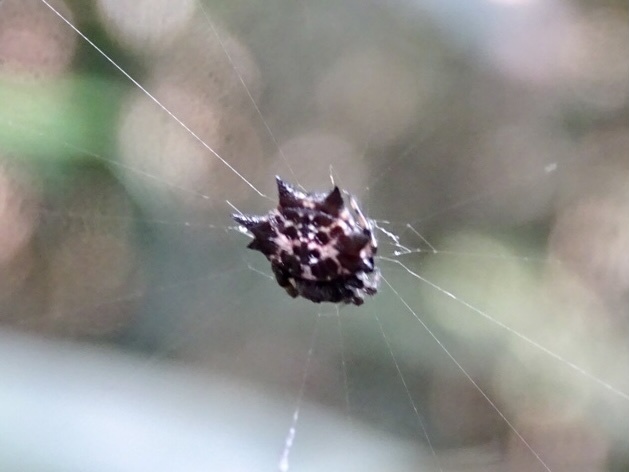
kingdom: Animalia
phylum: Arthropoda
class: Arachnida
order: Araneae
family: Araneidae
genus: Gasteracantha
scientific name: Gasteracantha kuhli
